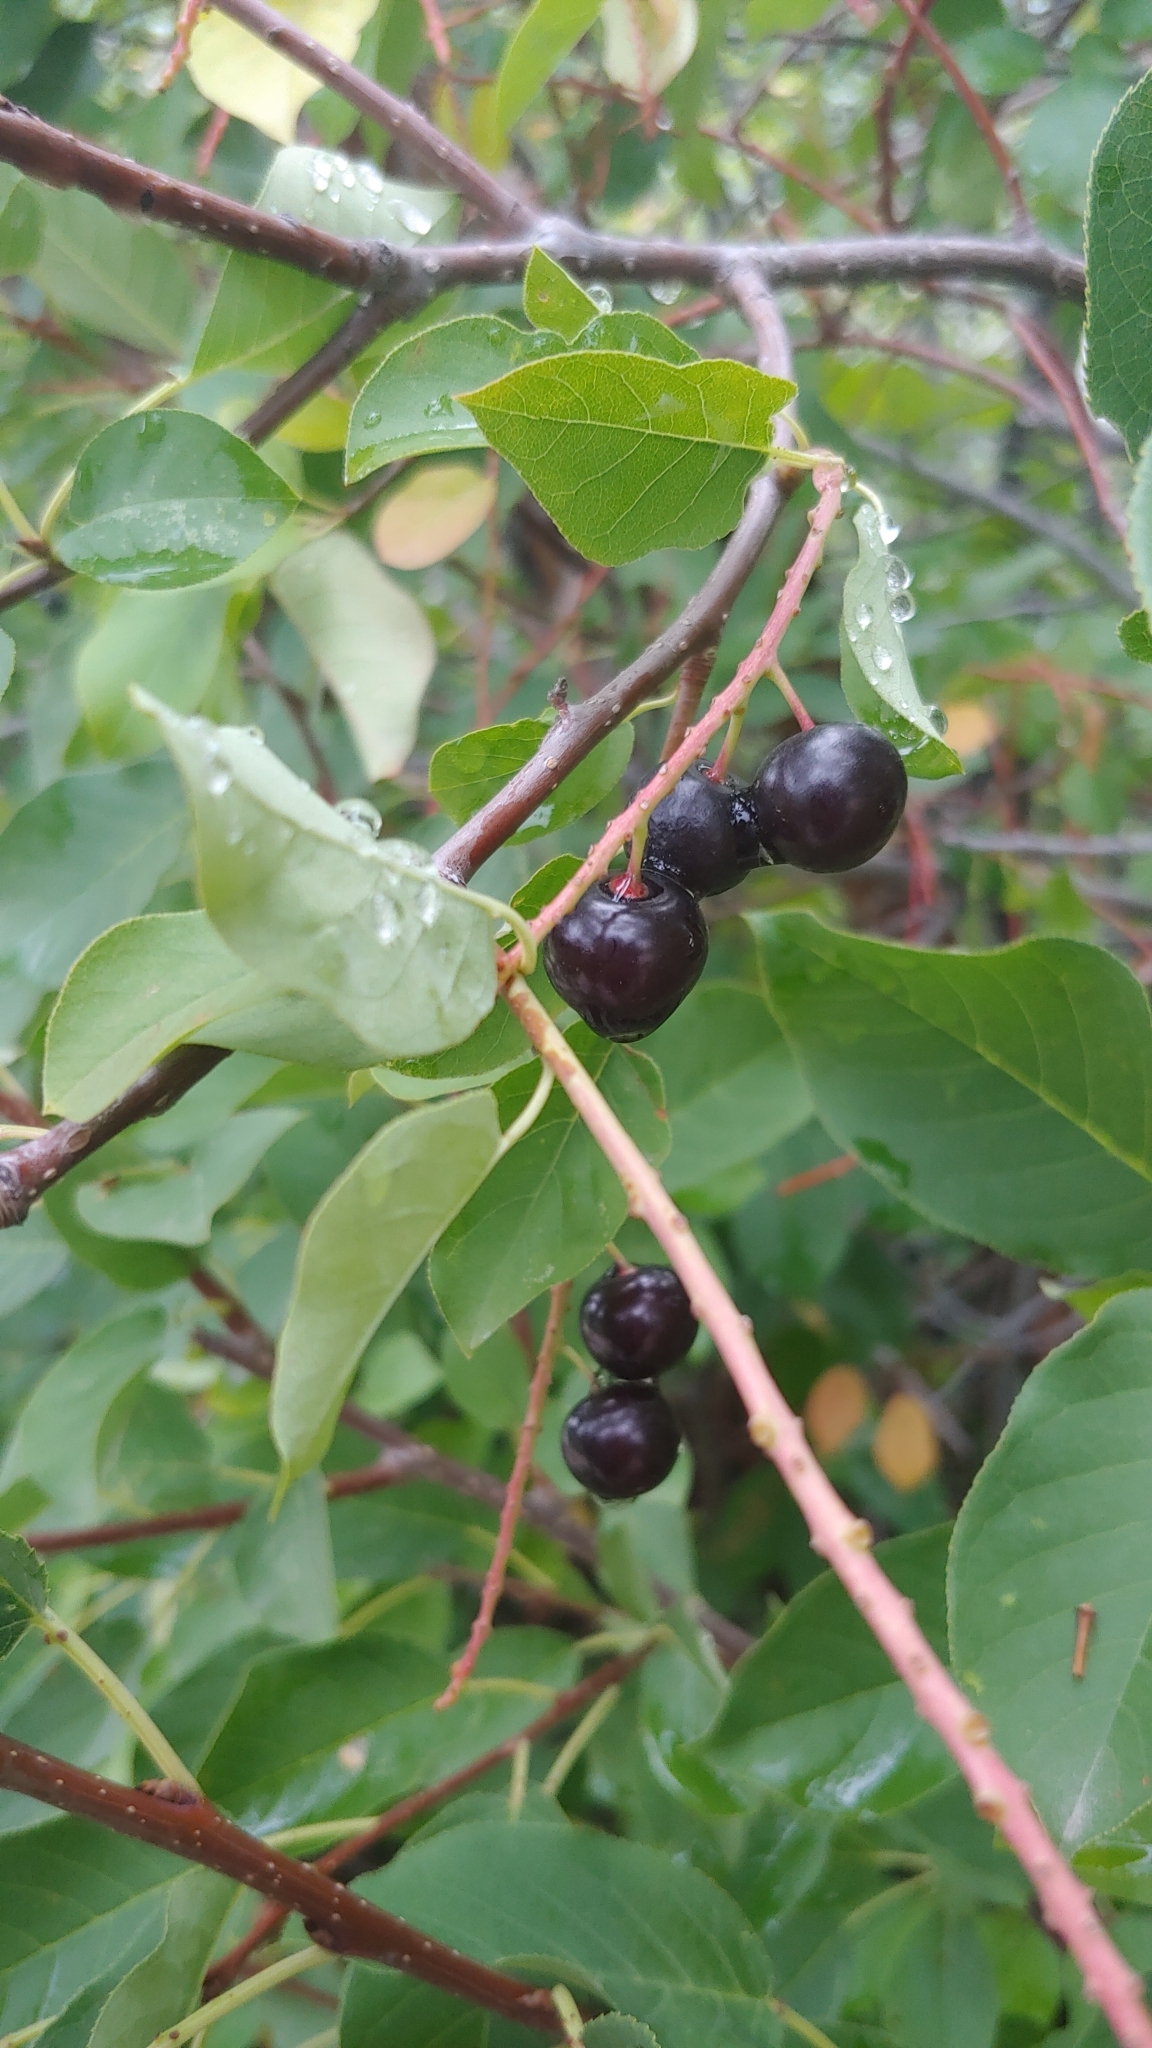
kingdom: Plantae
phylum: Tracheophyta
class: Magnoliopsida
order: Rosales
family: Rosaceae
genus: Prunus
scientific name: Prunus virginiana
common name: Chokecherry
